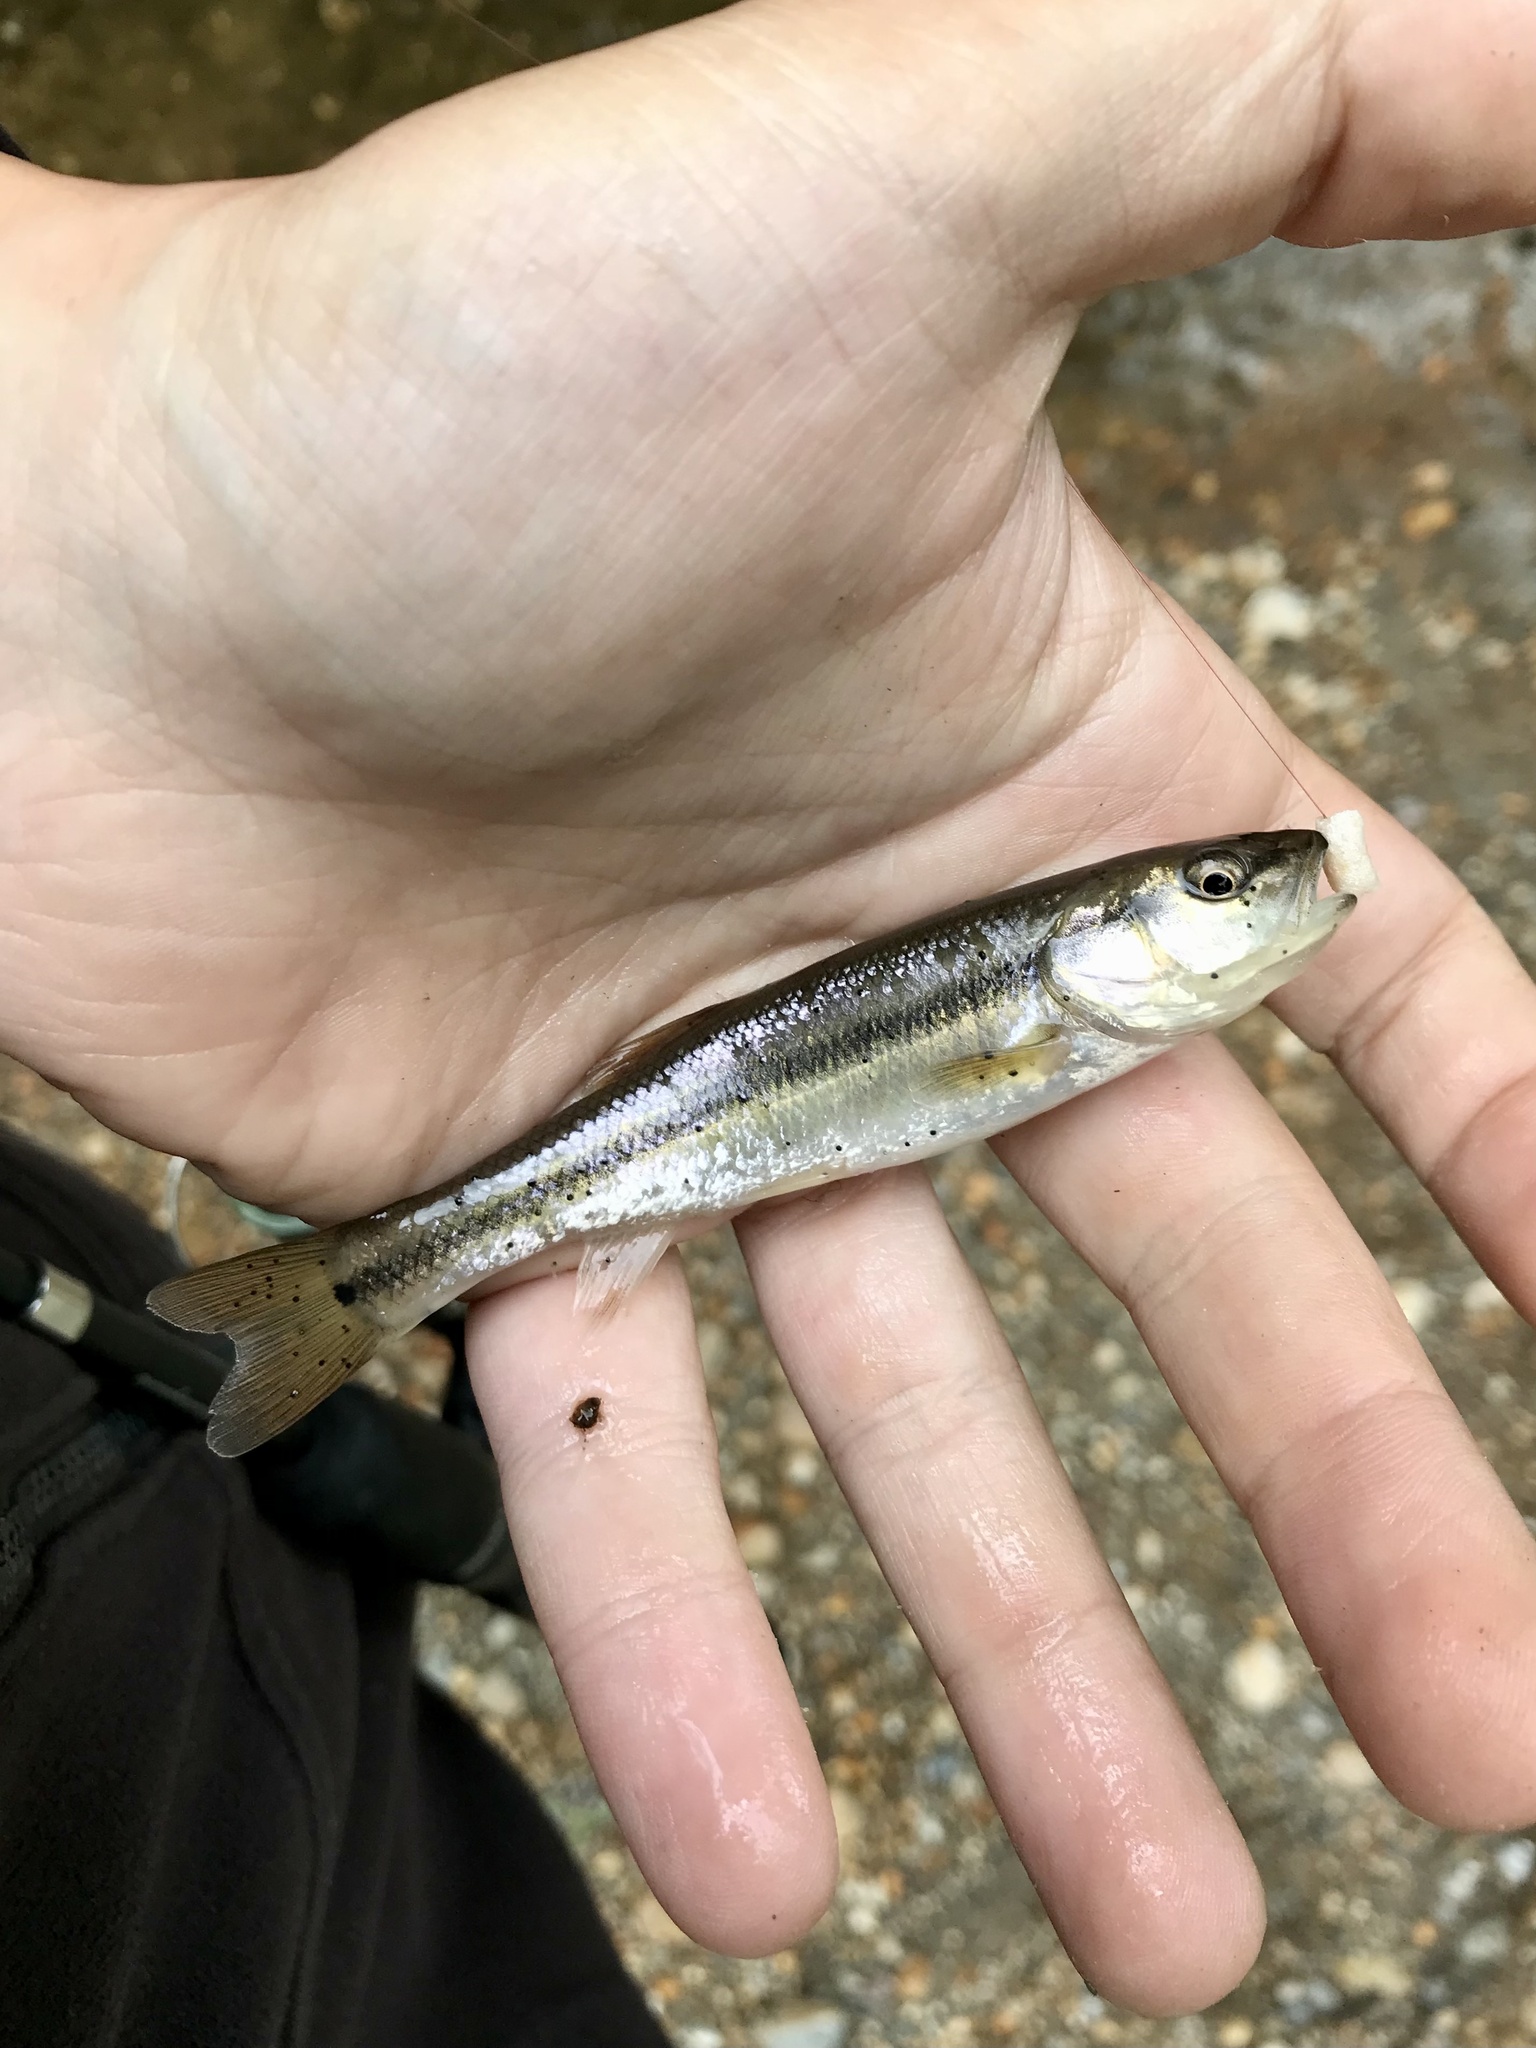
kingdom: Animalia
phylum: Chordata
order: Cypriniformes
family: Cyprinidae
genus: Semotilus
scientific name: Semotilus atromaculatus
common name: Creek chub
